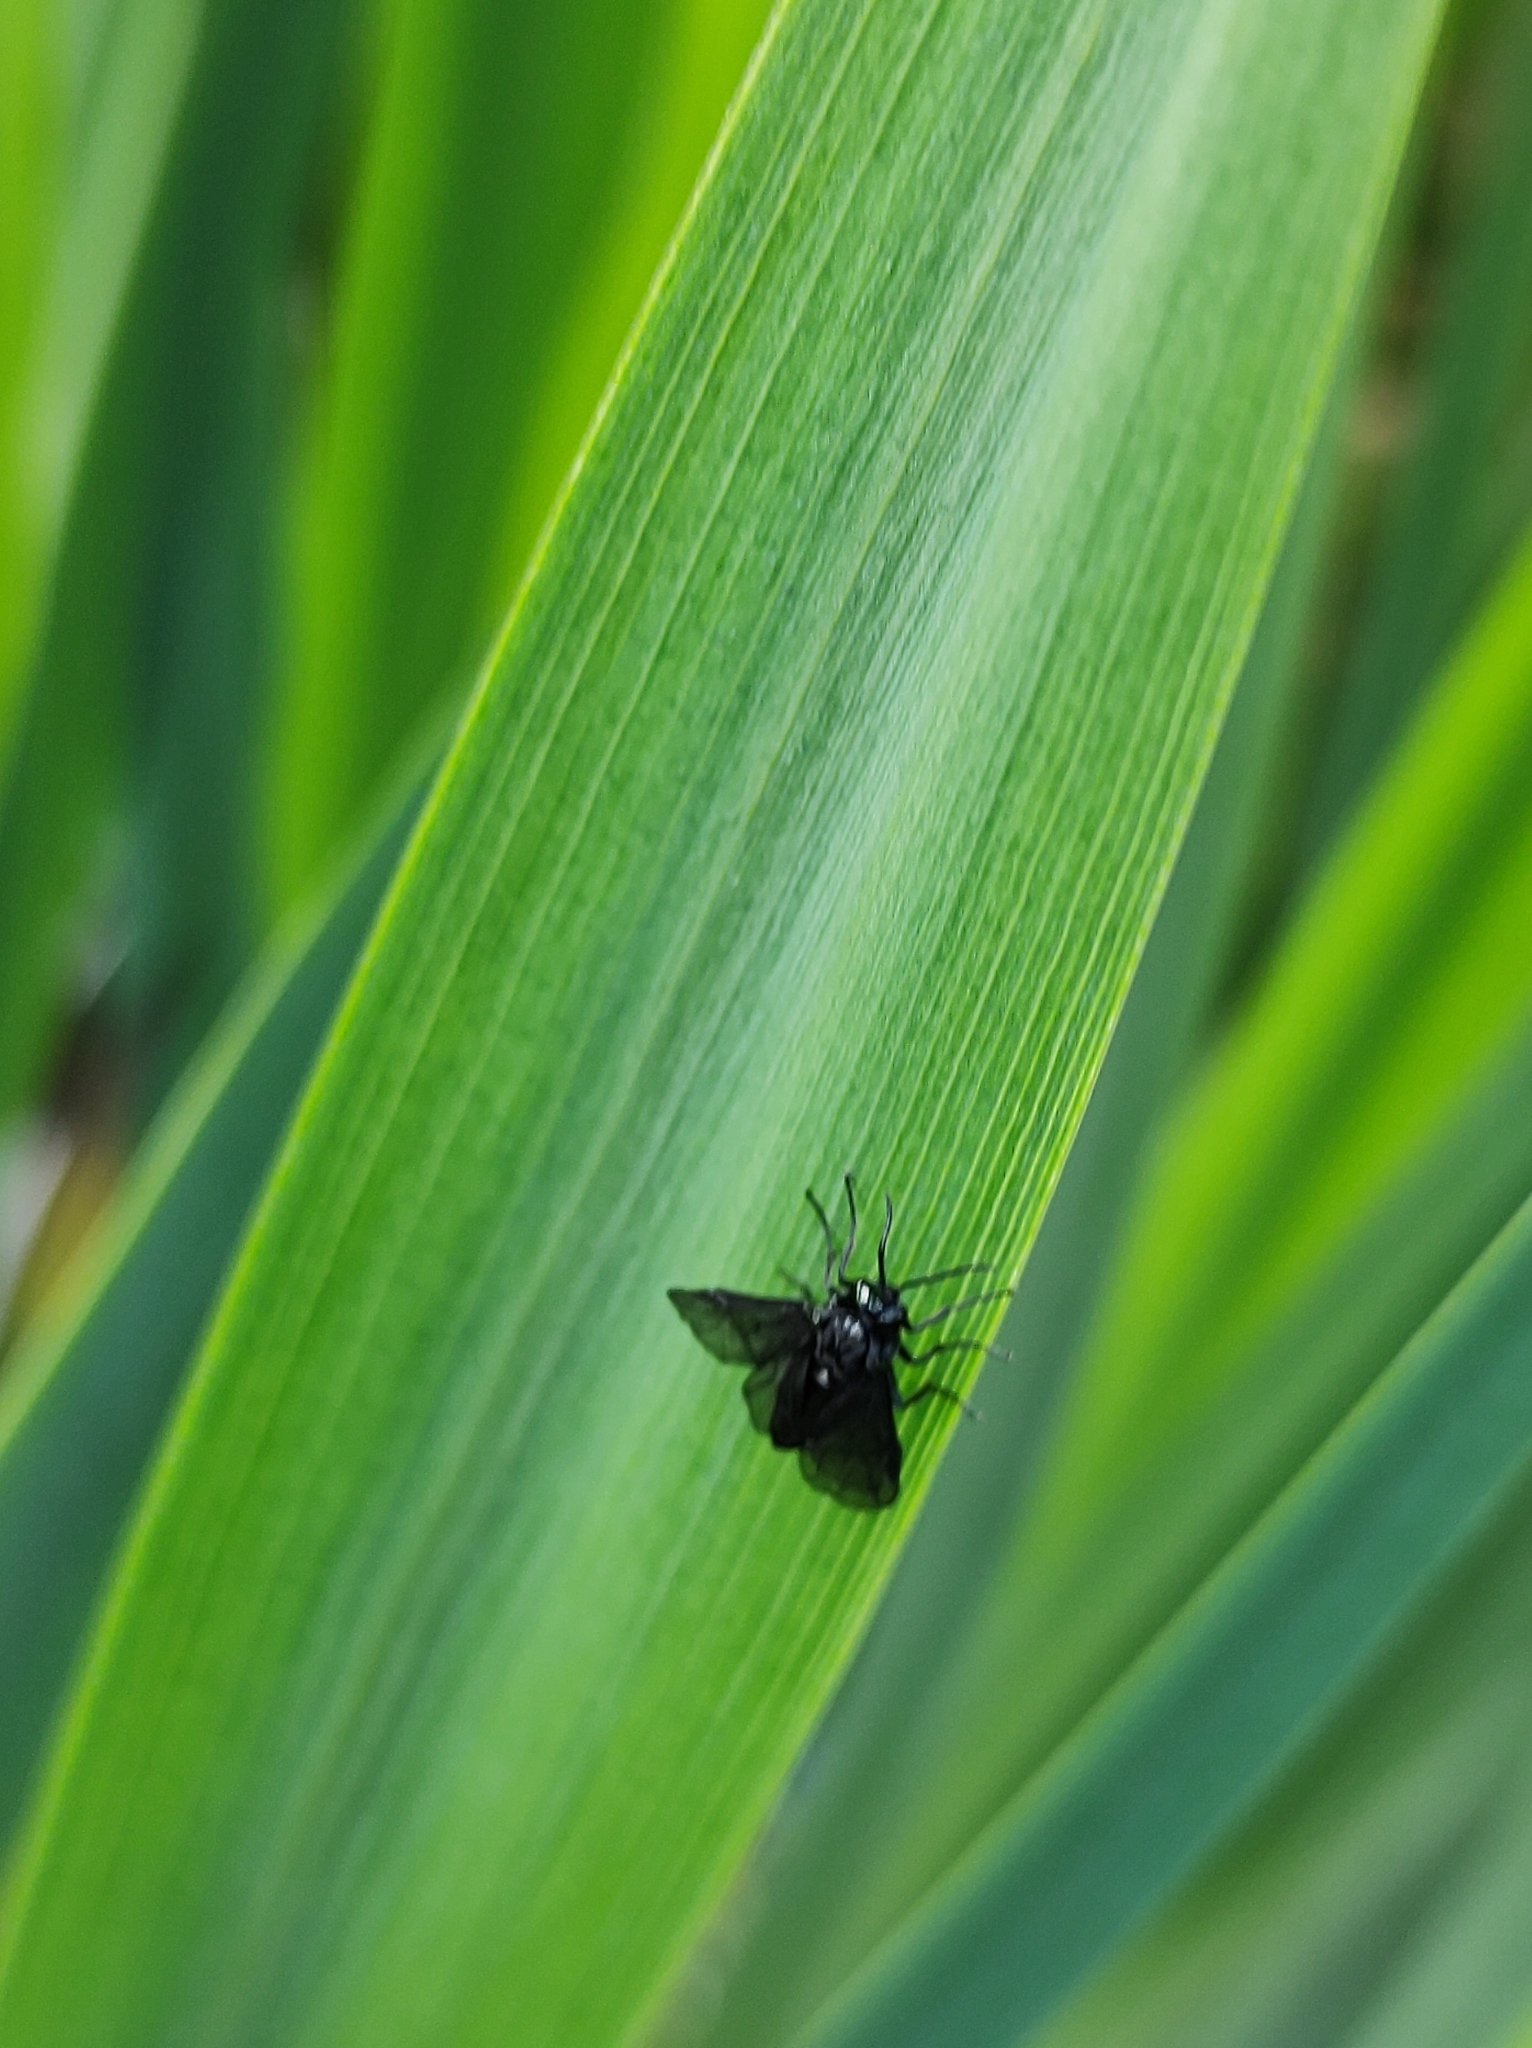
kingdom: Animalia
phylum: Arthropoda
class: Insecta
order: Hymenoptera
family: Tenthredinidae
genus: Rhadinoceraea
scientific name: Rhadinoceraea micans
